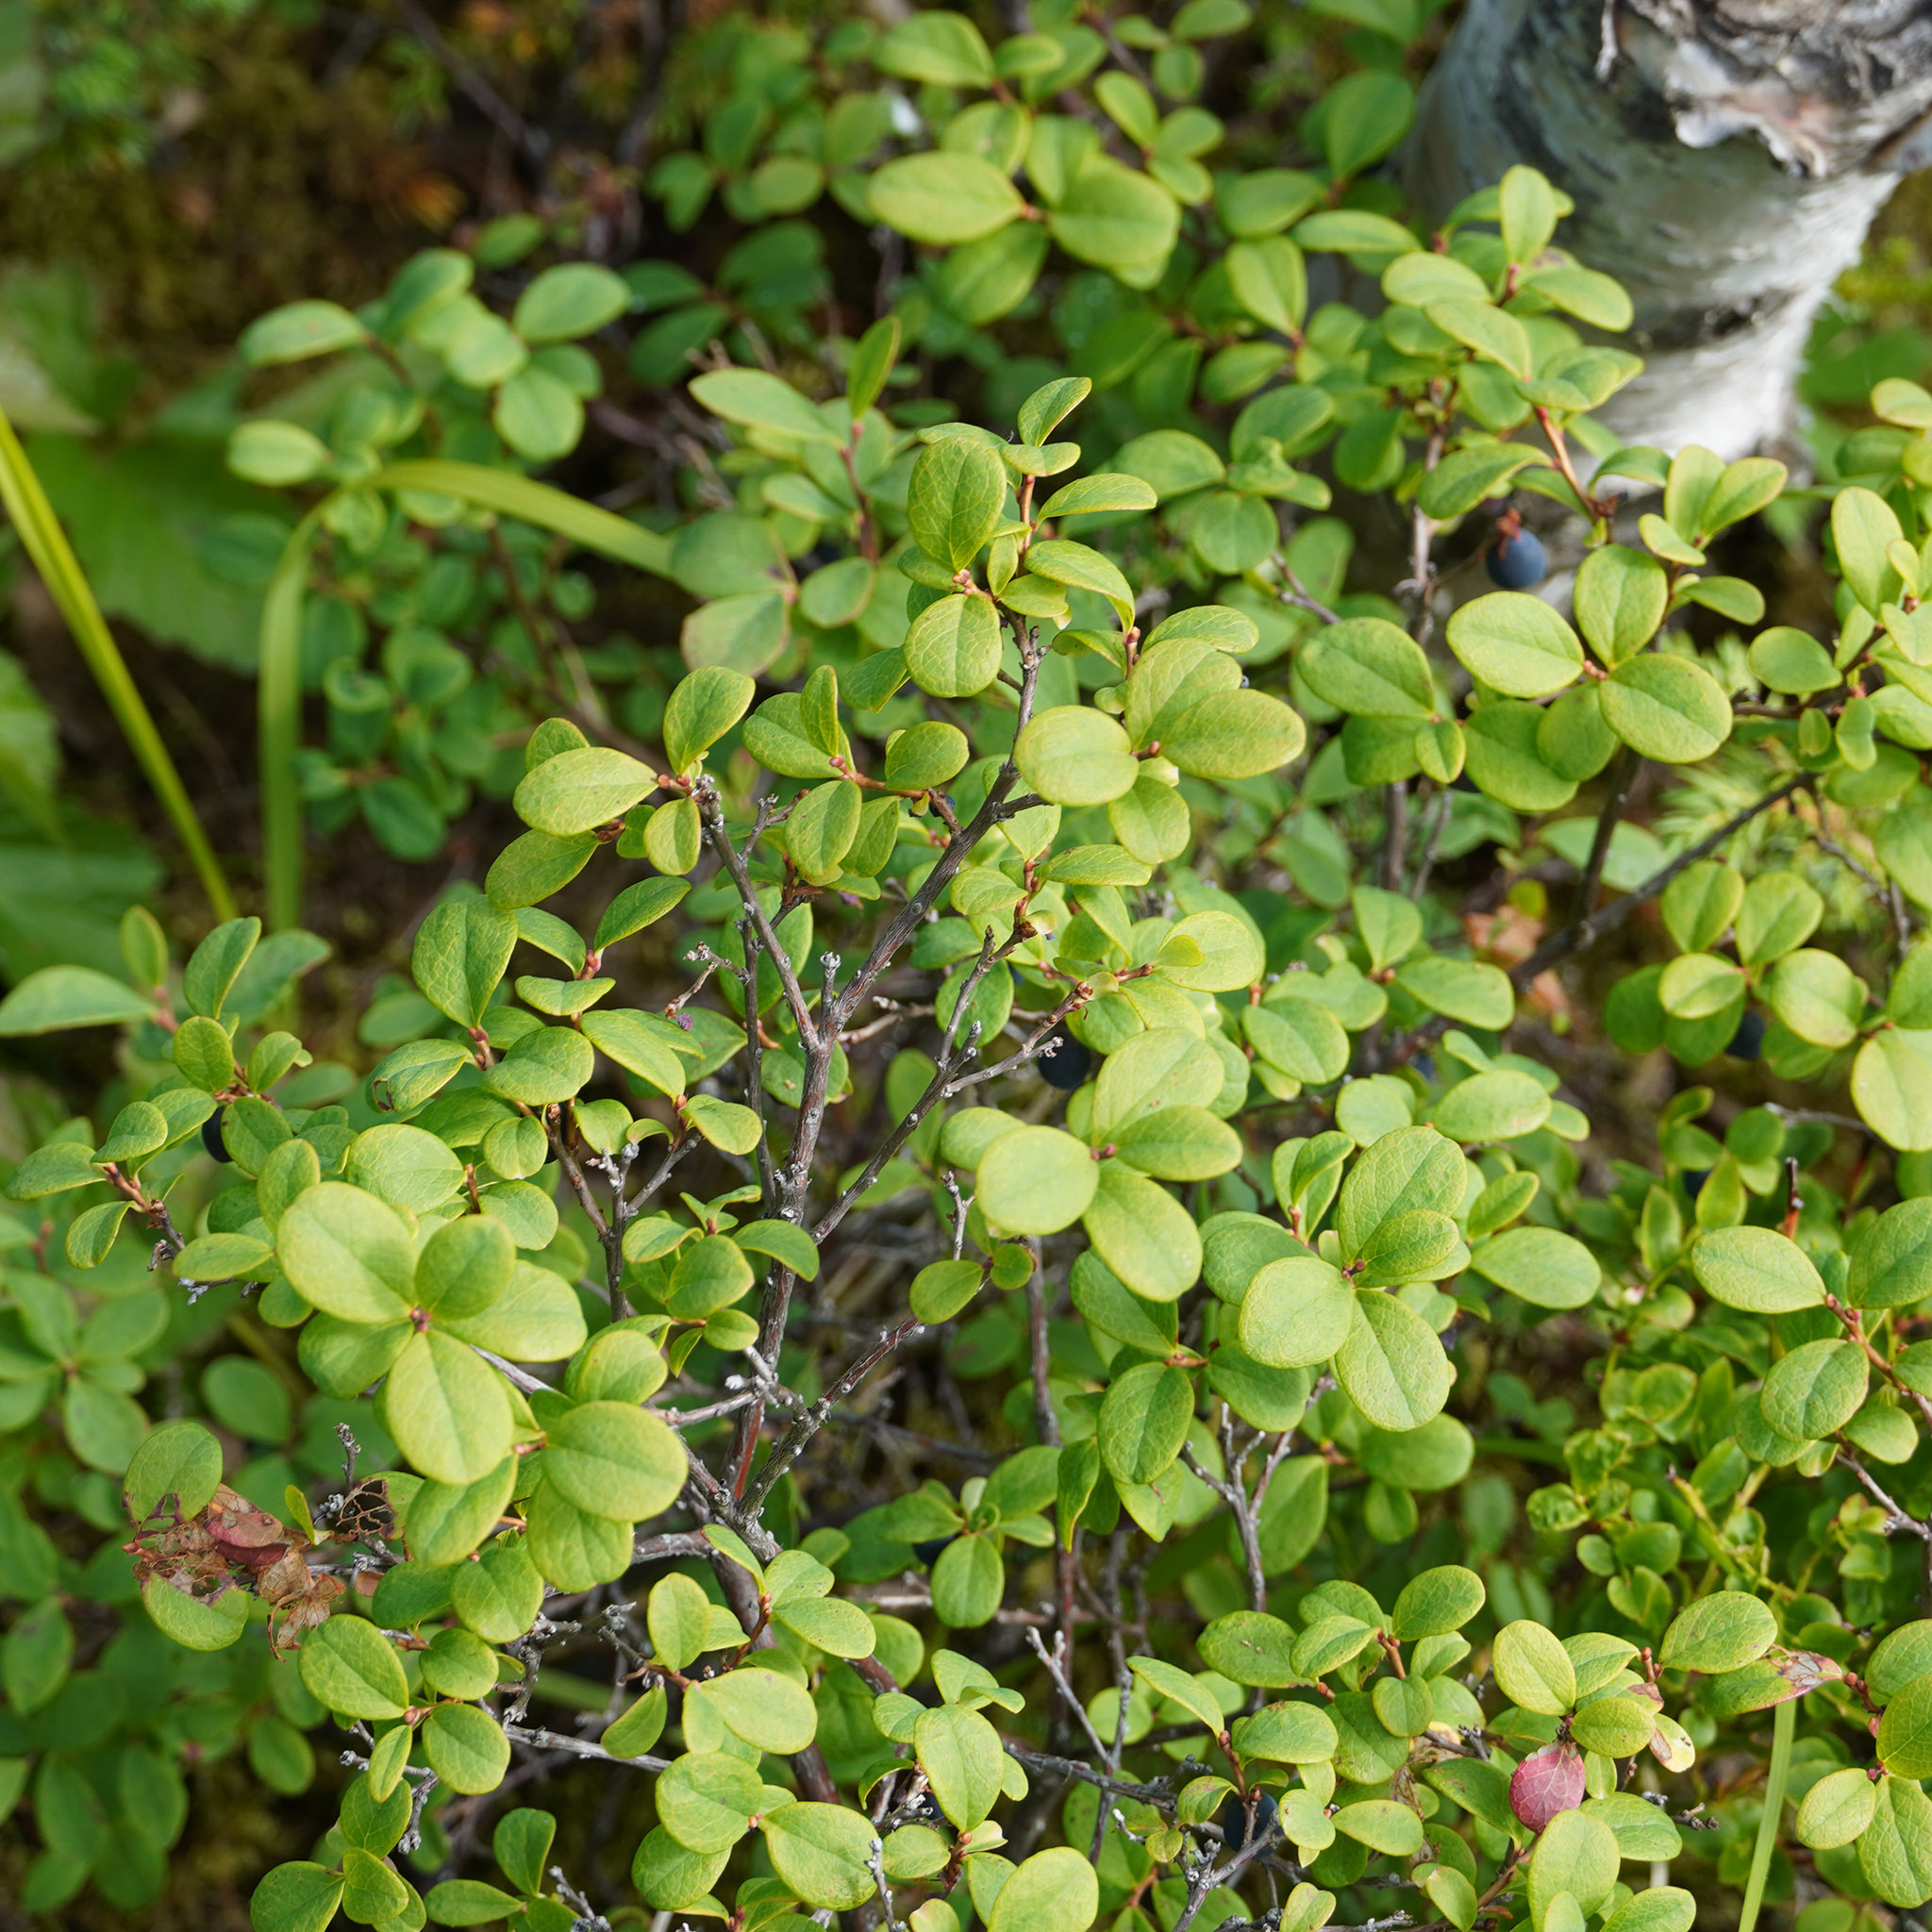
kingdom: Plantae
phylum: Tracheophyta
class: Magnoliopsida
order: Ericales
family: Ericaceae
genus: Vaccinium
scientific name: Vaccinium uliginosum
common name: Bog bilberry
